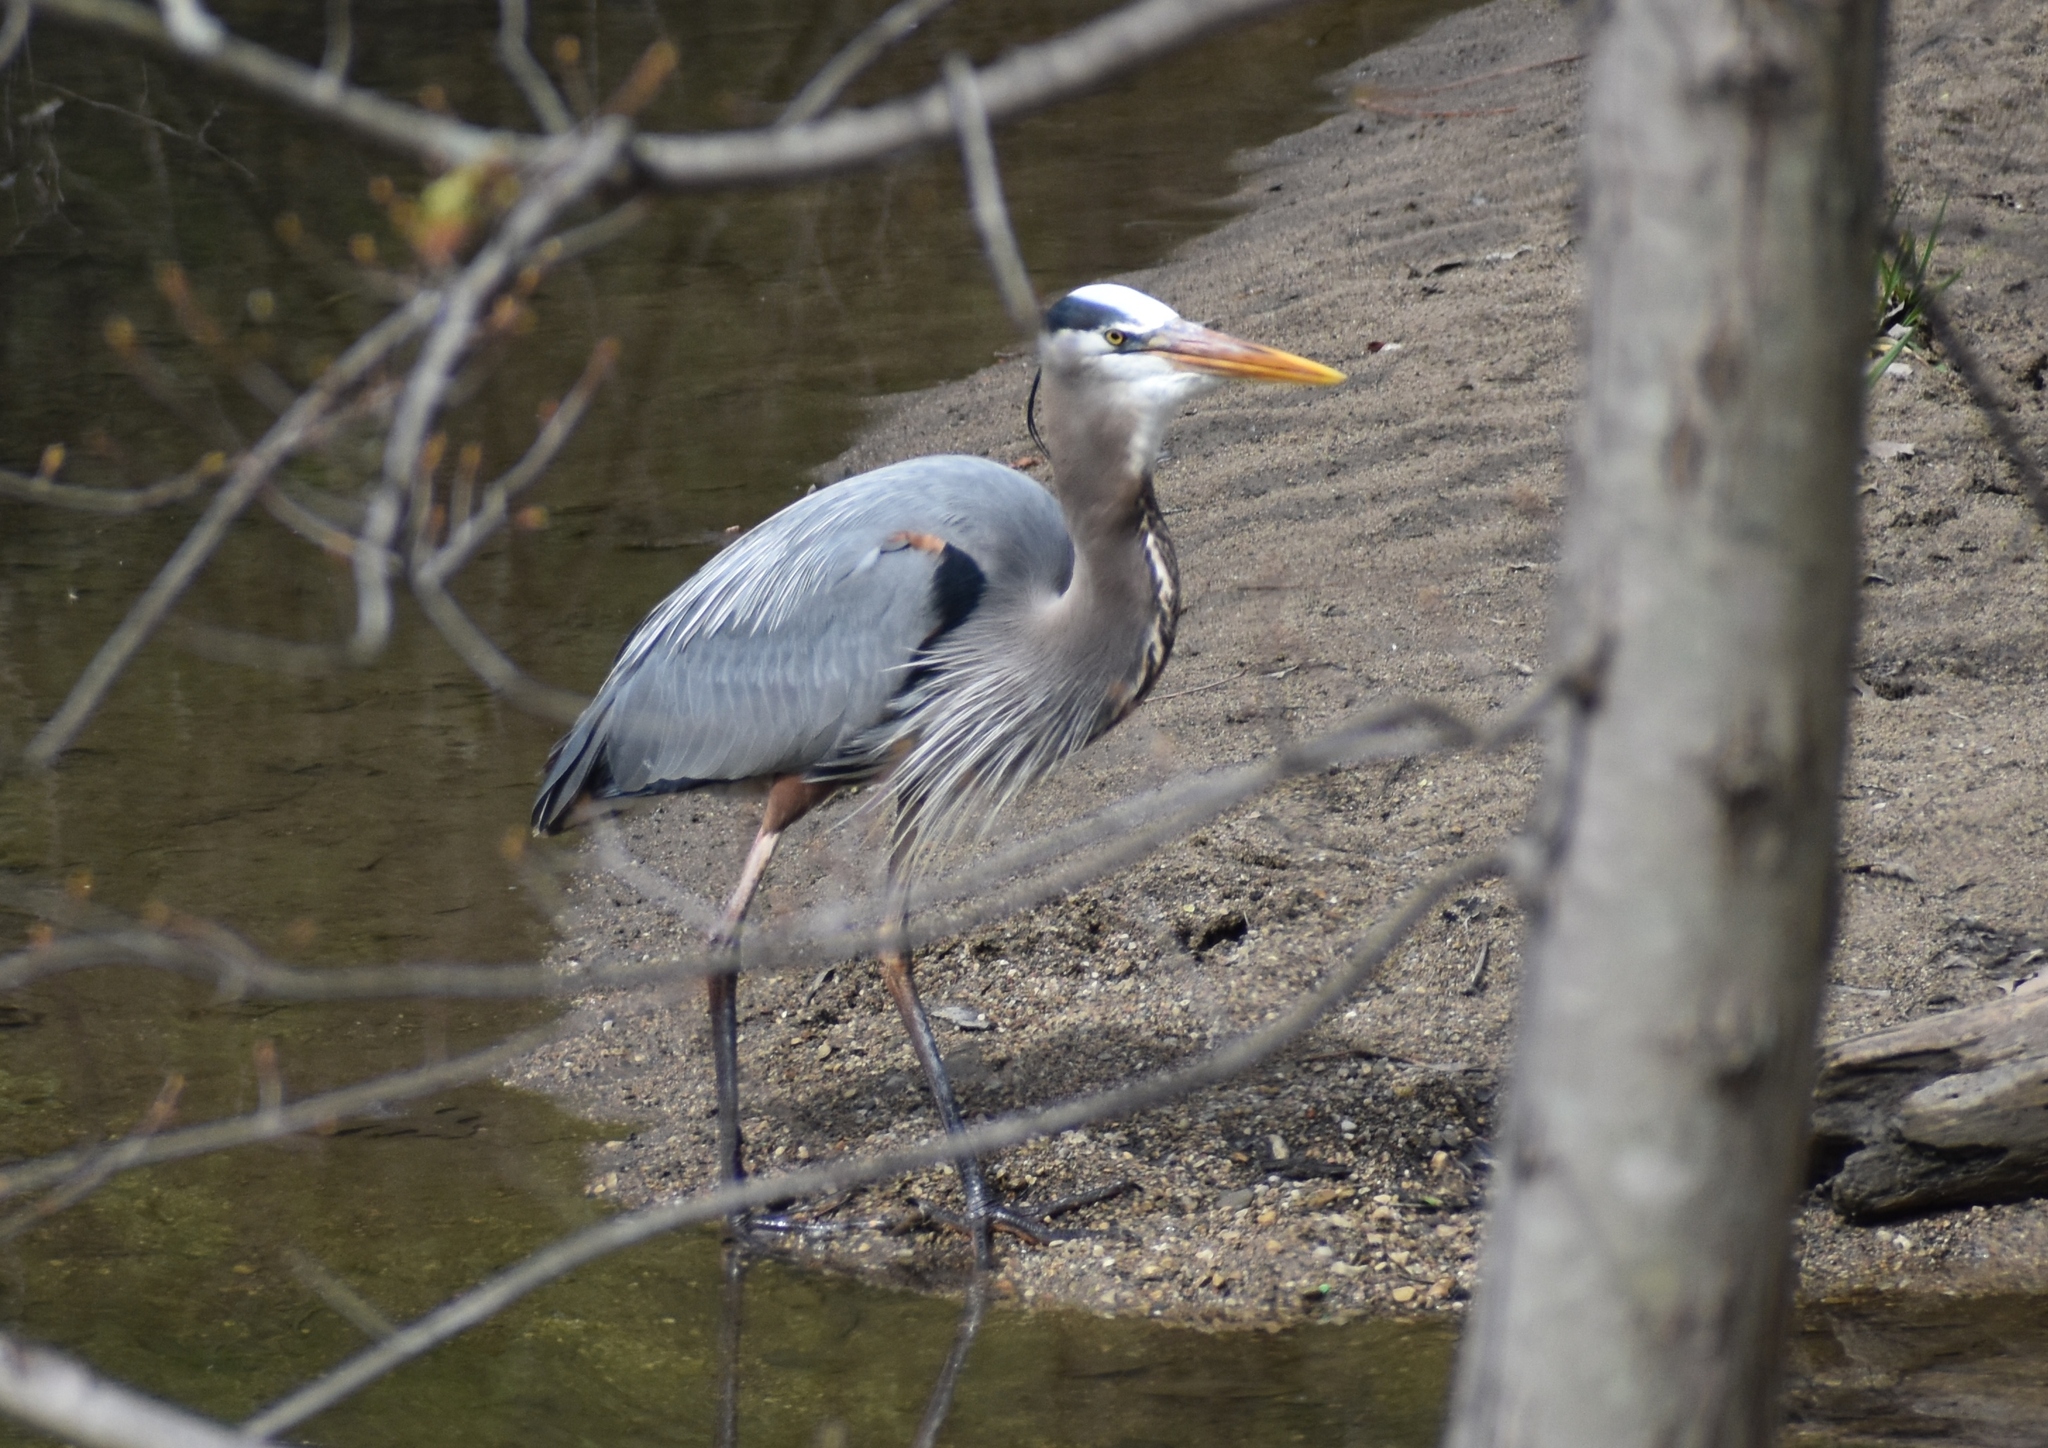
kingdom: Animalia
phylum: Chordata
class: Aves
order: Pelecaniformes
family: Ardeidae
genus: Ardea
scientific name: Ardea herodias
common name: Great blue heron
